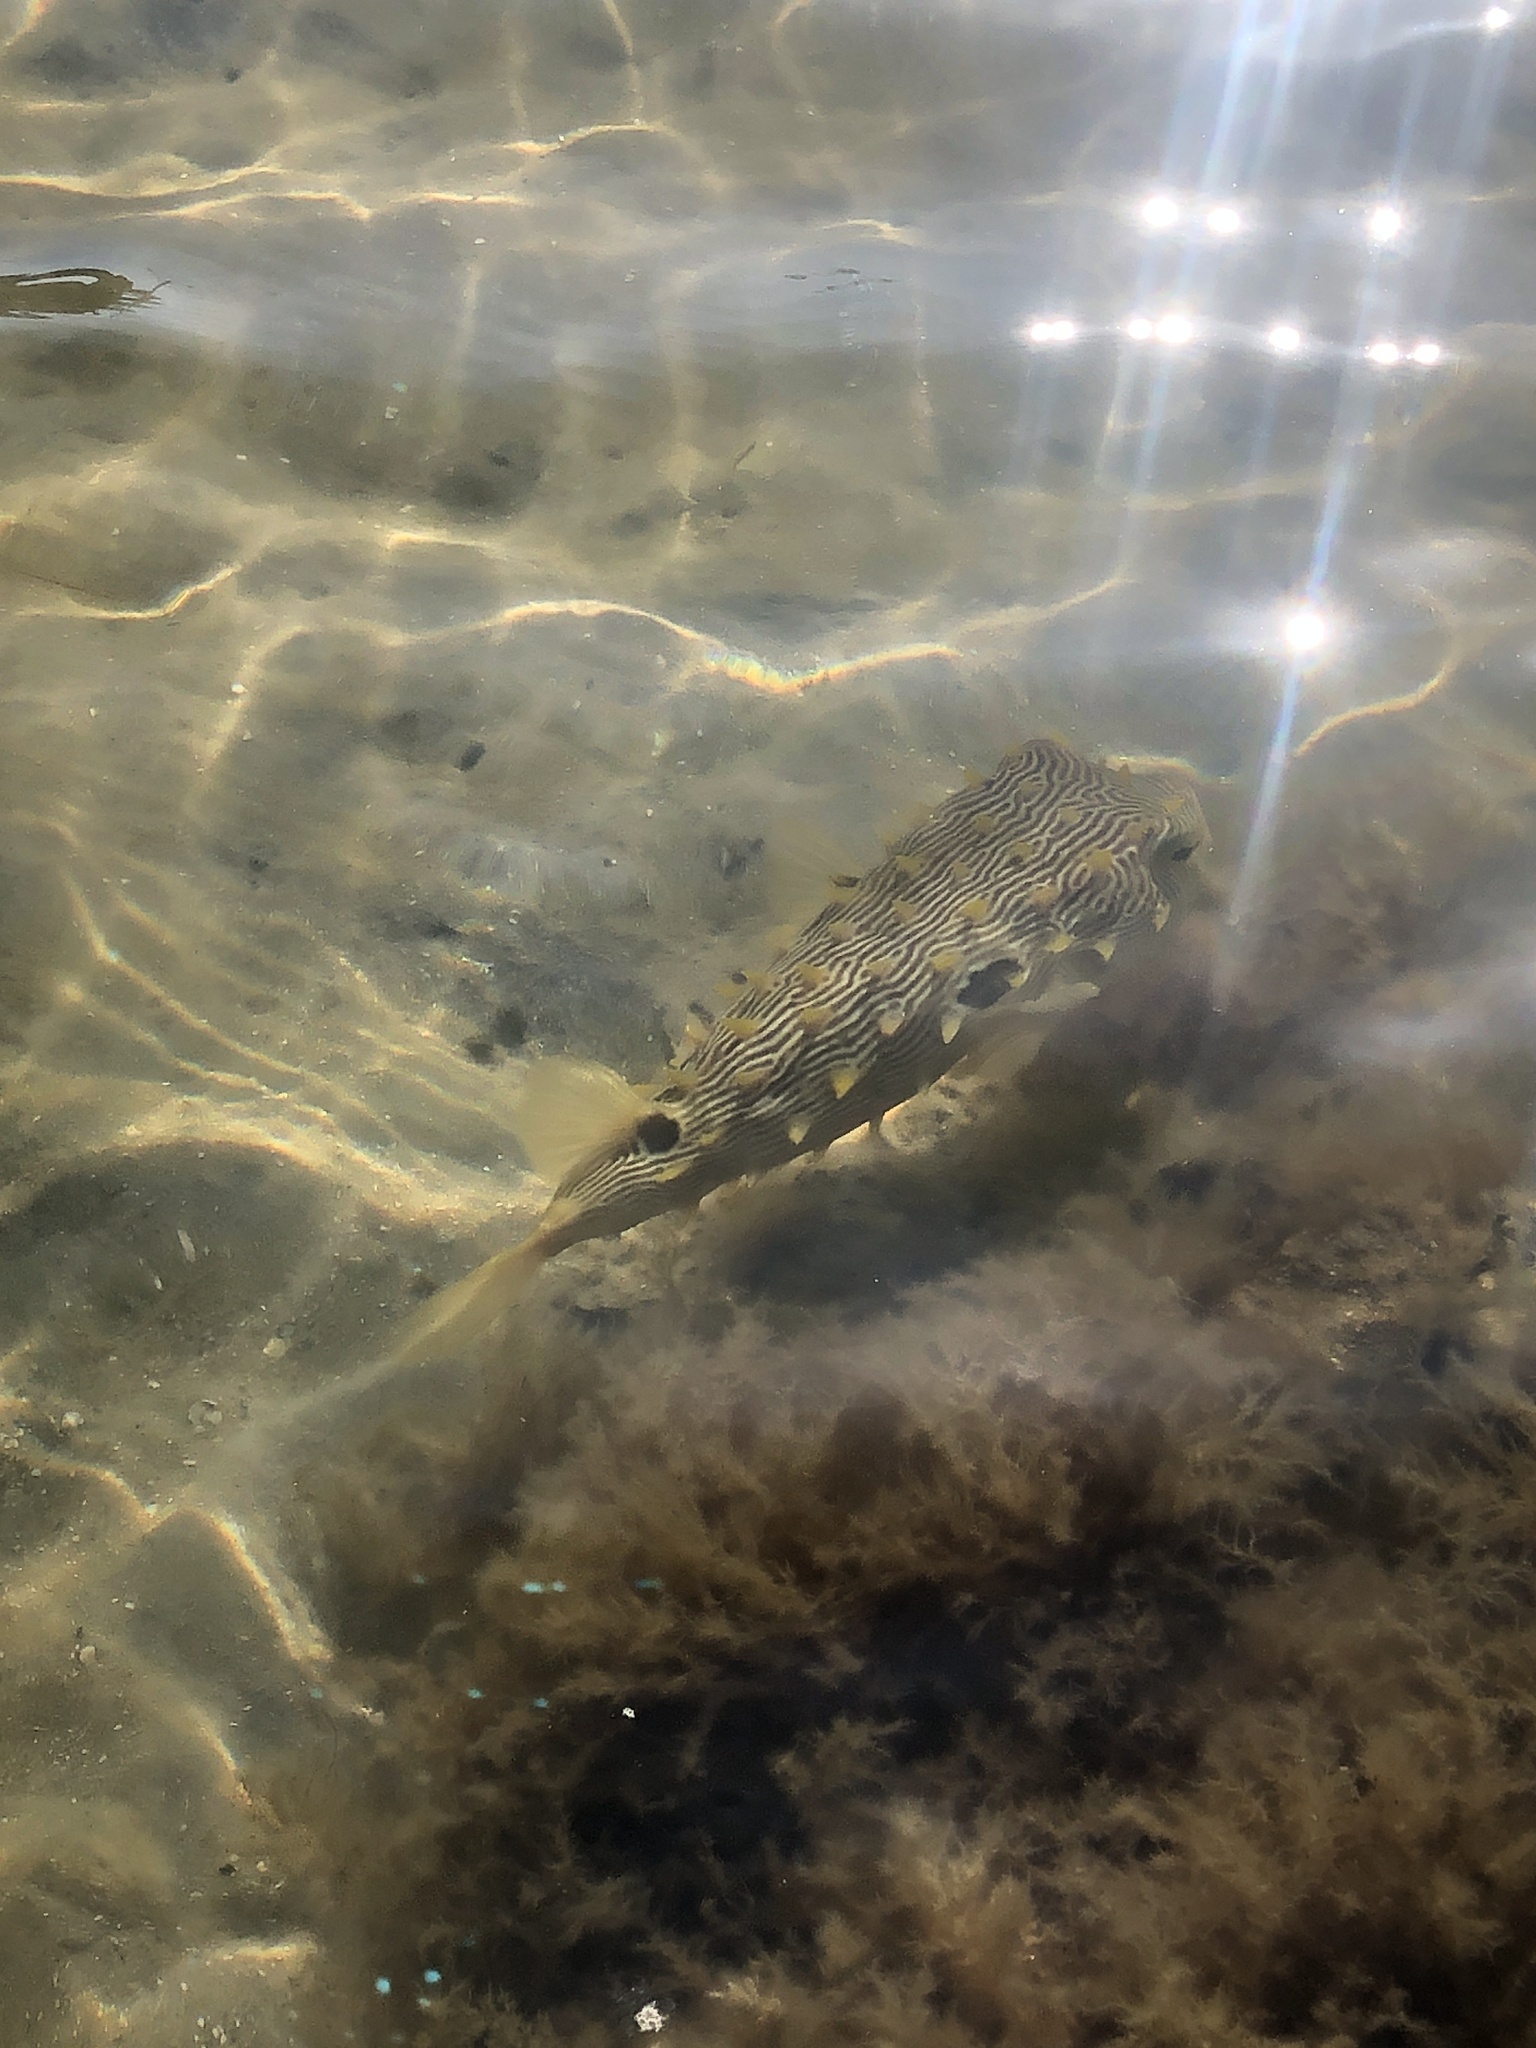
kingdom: Animalia
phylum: Chordata
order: Tetraodontiformes
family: Diodontidae
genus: Chilomycterus
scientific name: Chilomycterus schoepfii
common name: Striped burrfish
